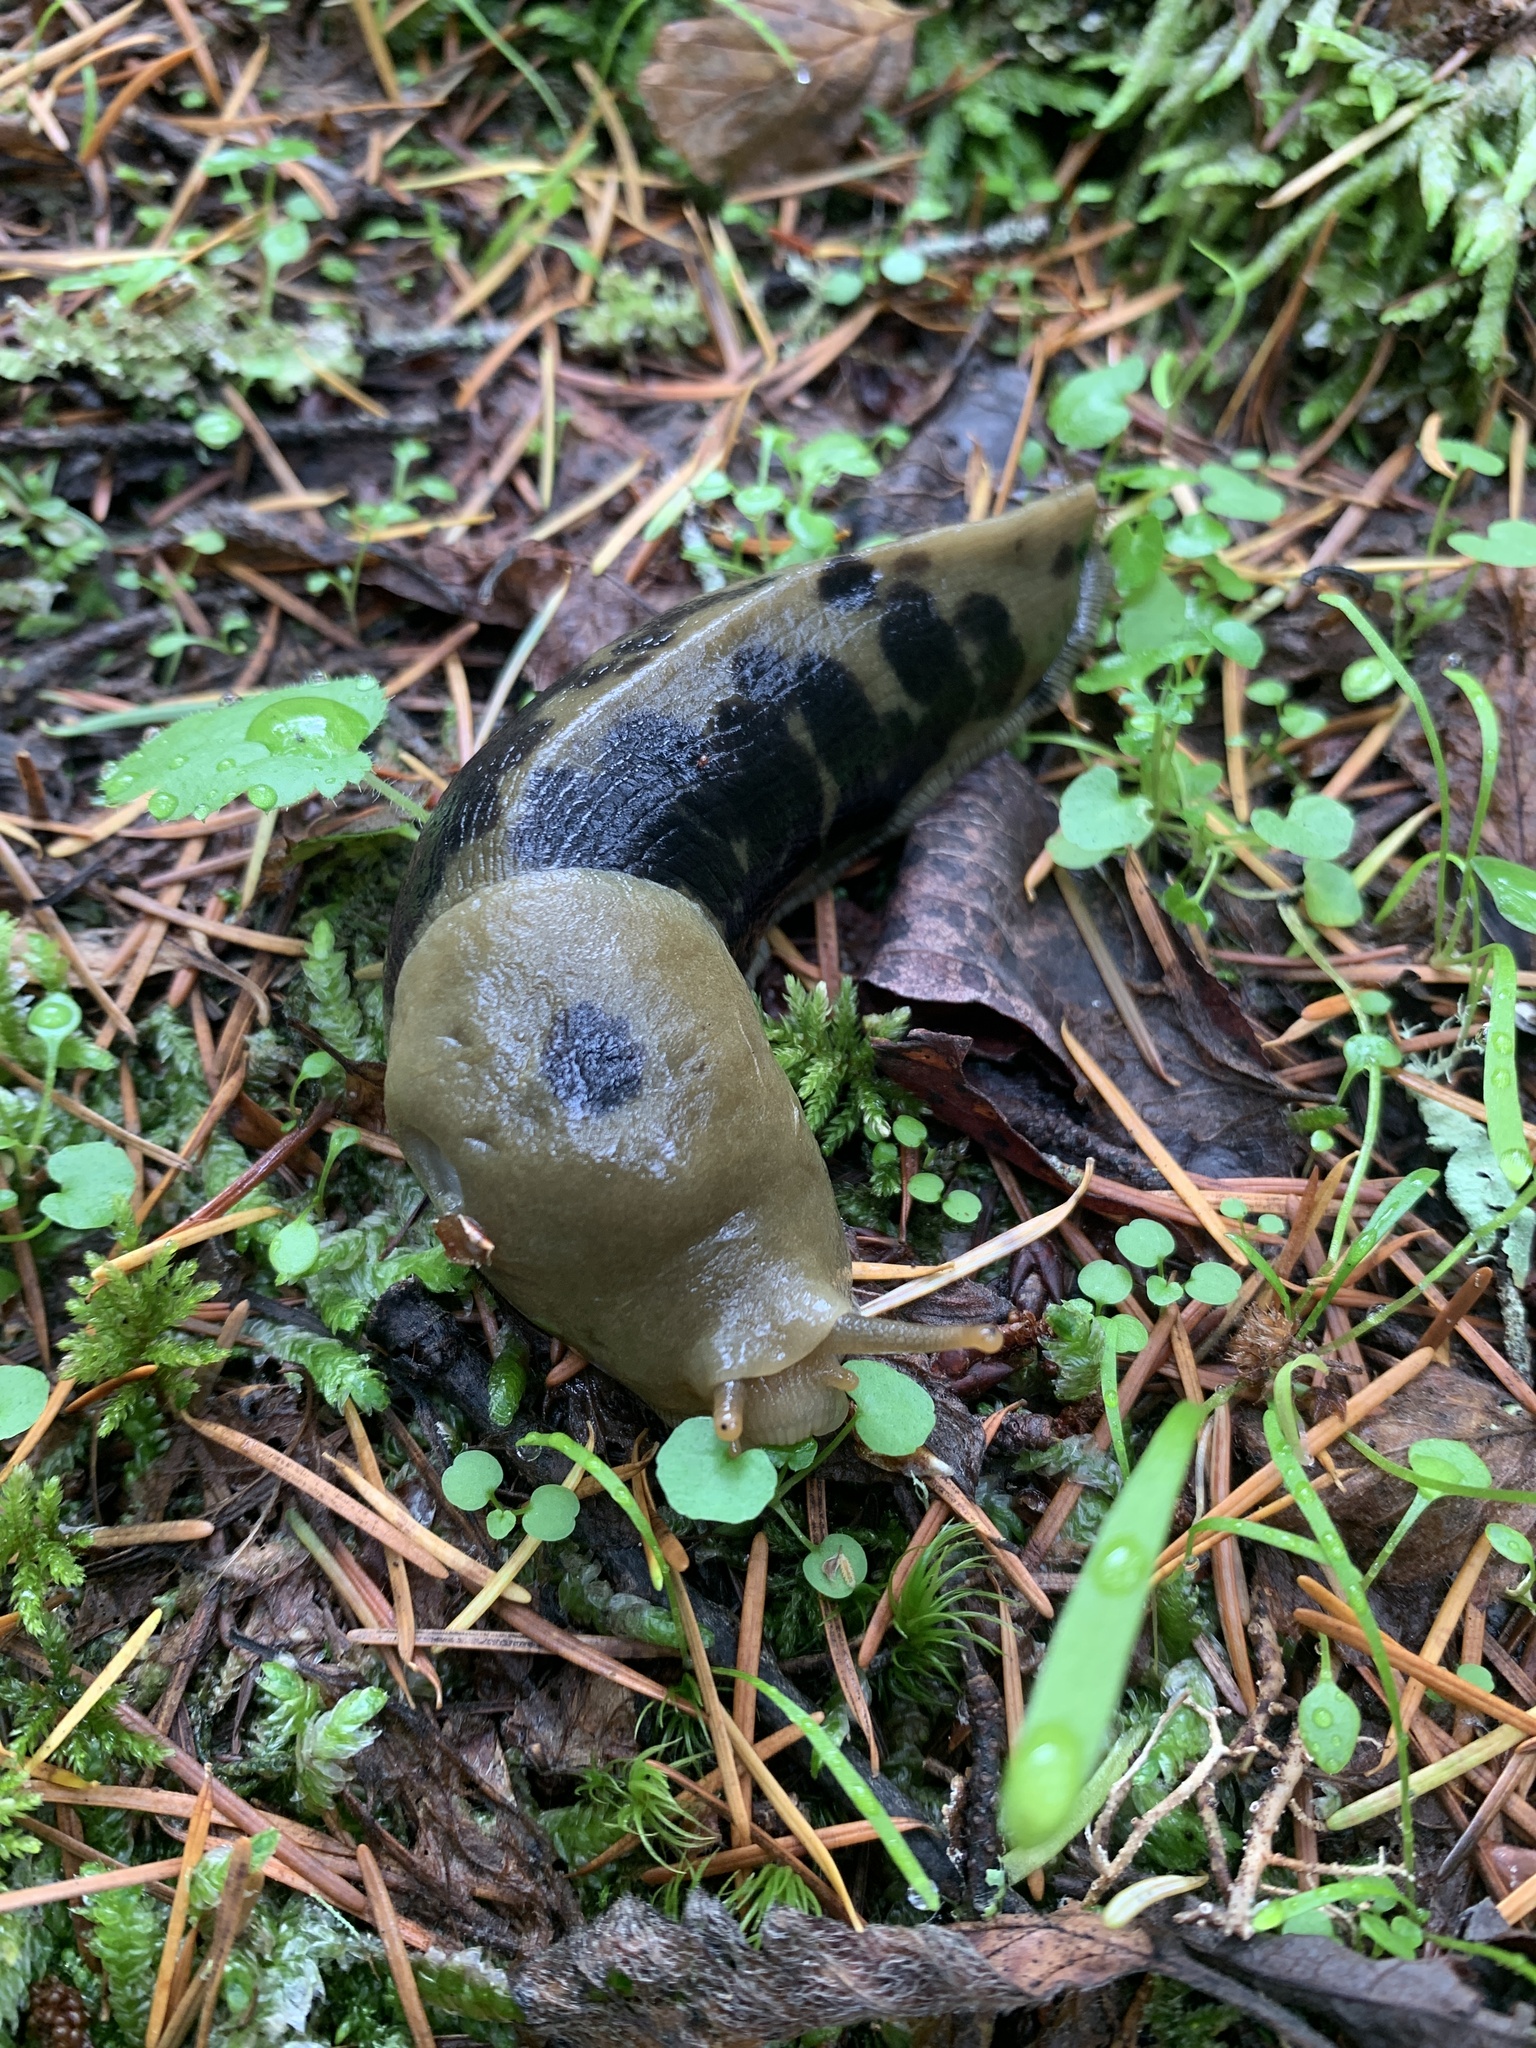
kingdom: Animalia
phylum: Mollusca
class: Gastropoda
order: Stylommatophora
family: Ariolimacidae
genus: Ariolimax
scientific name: Ariolimax columbianus
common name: Pacific banana slug
